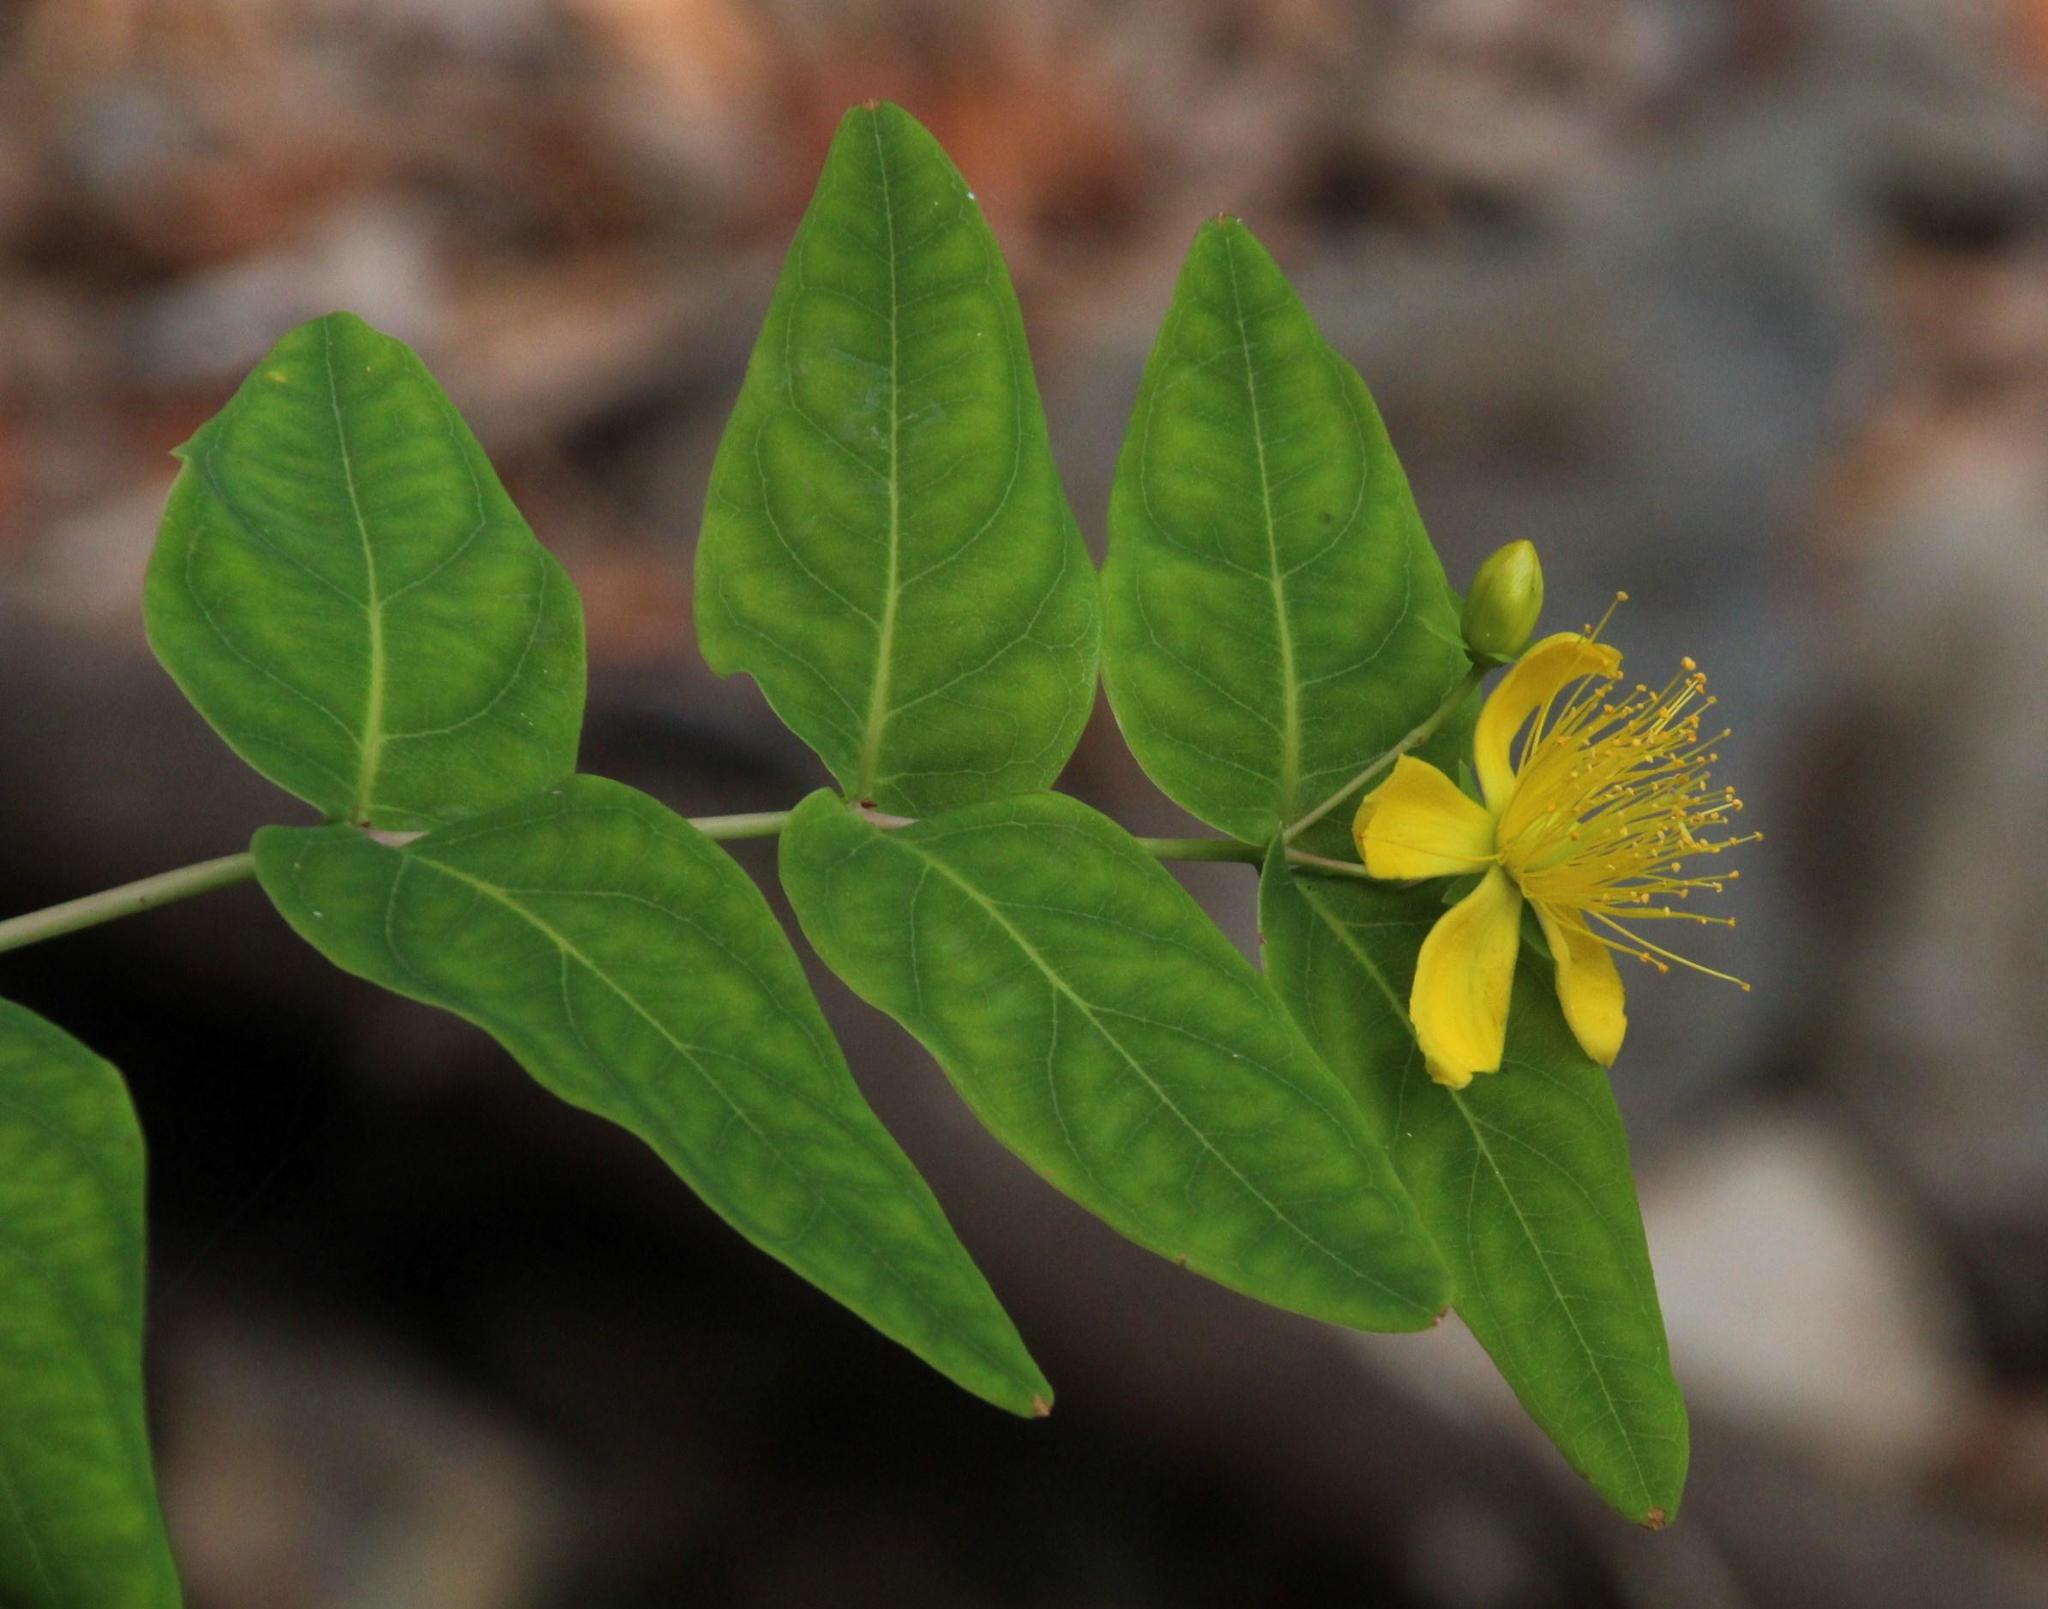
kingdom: Plantae
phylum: Tracheophyta
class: Magnoliopsida
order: Malpighiales
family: Hypericaceae
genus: Hypericum
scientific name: Hypericum grandifolium
